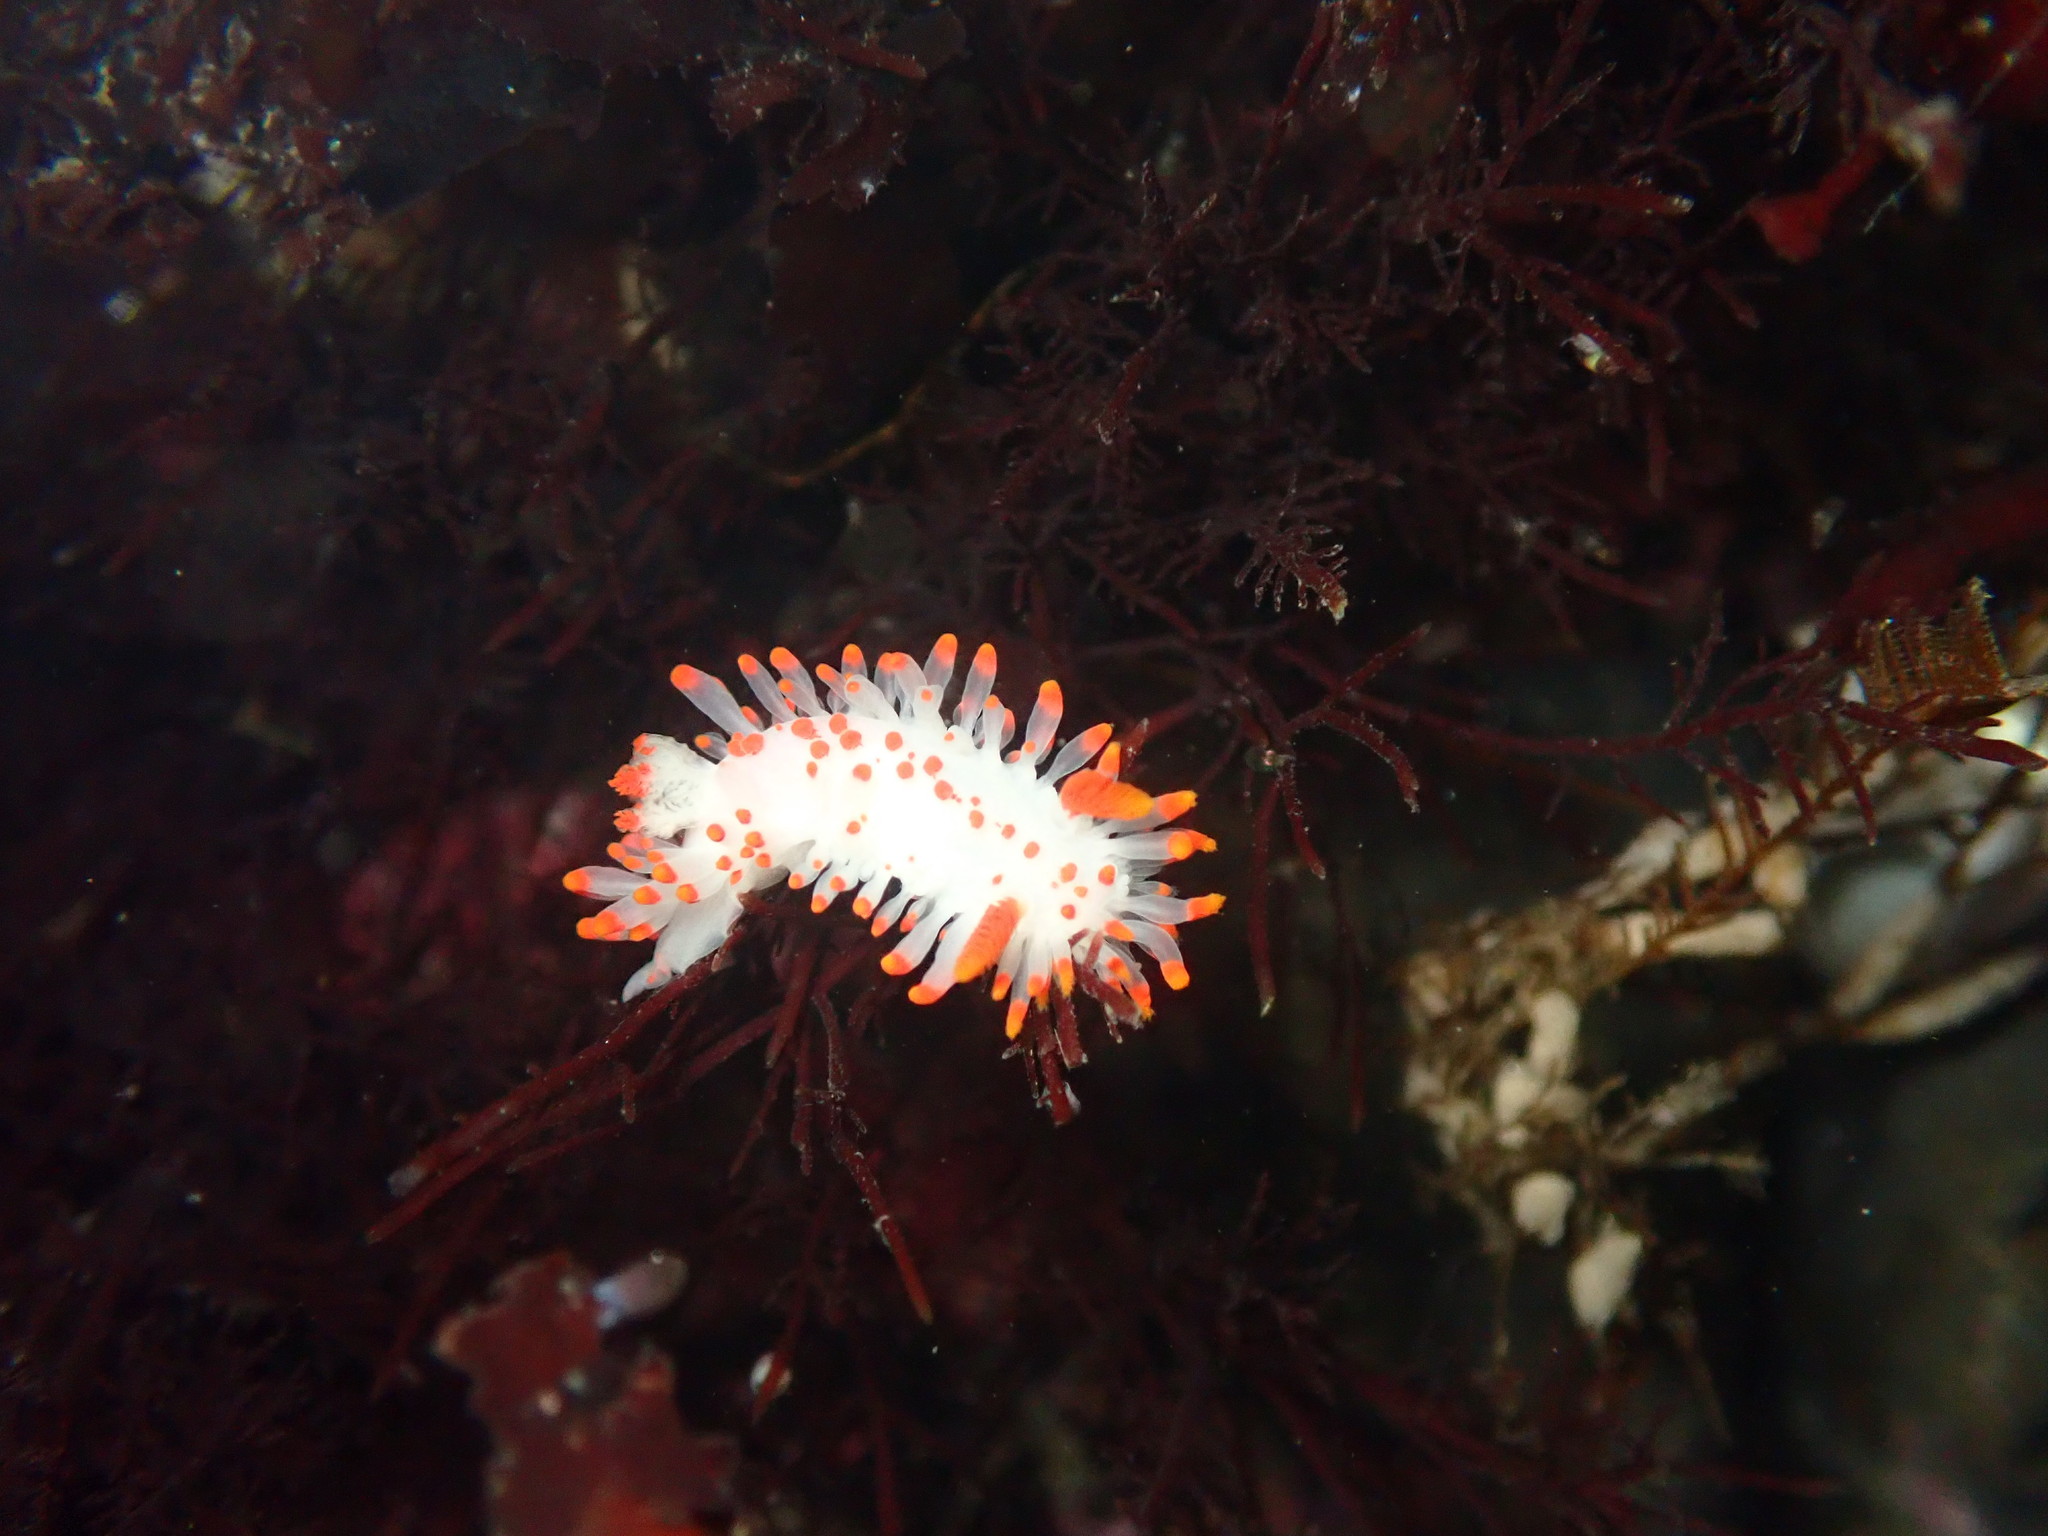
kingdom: Animalia
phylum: Mollusca
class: Gastropoda
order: Nudibranchia
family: Polyceridae
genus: Limacia
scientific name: Limacia mcdonaldi
